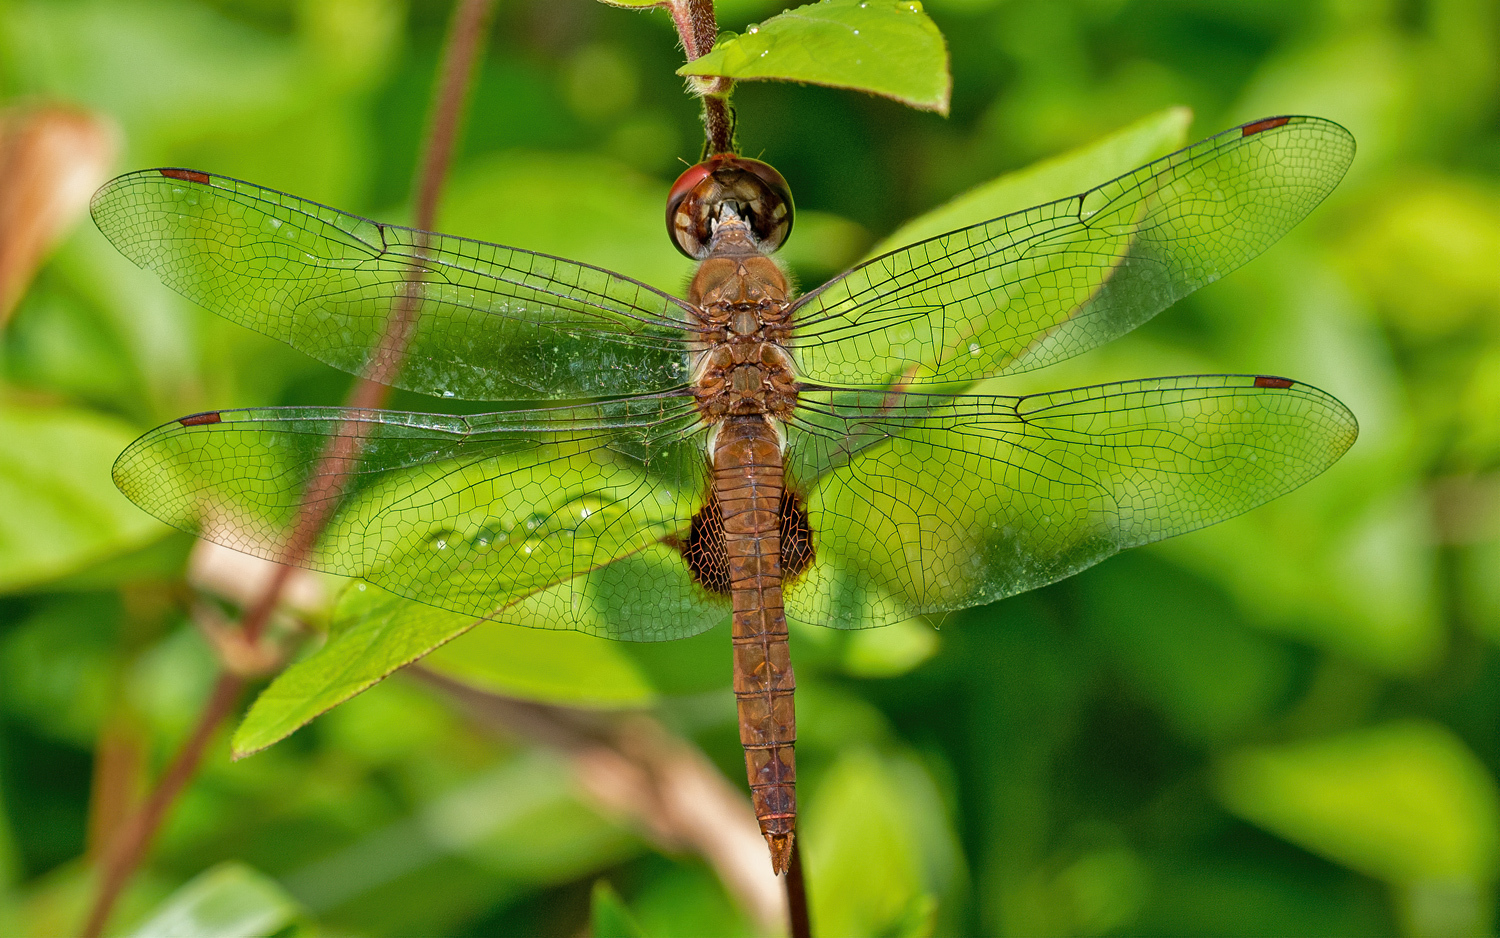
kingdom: Animalia
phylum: Arthropoda
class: Insecta
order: Odonata
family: Libellulidae
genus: Pantala
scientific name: Pantala hymenaea
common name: Spot-winged glider
